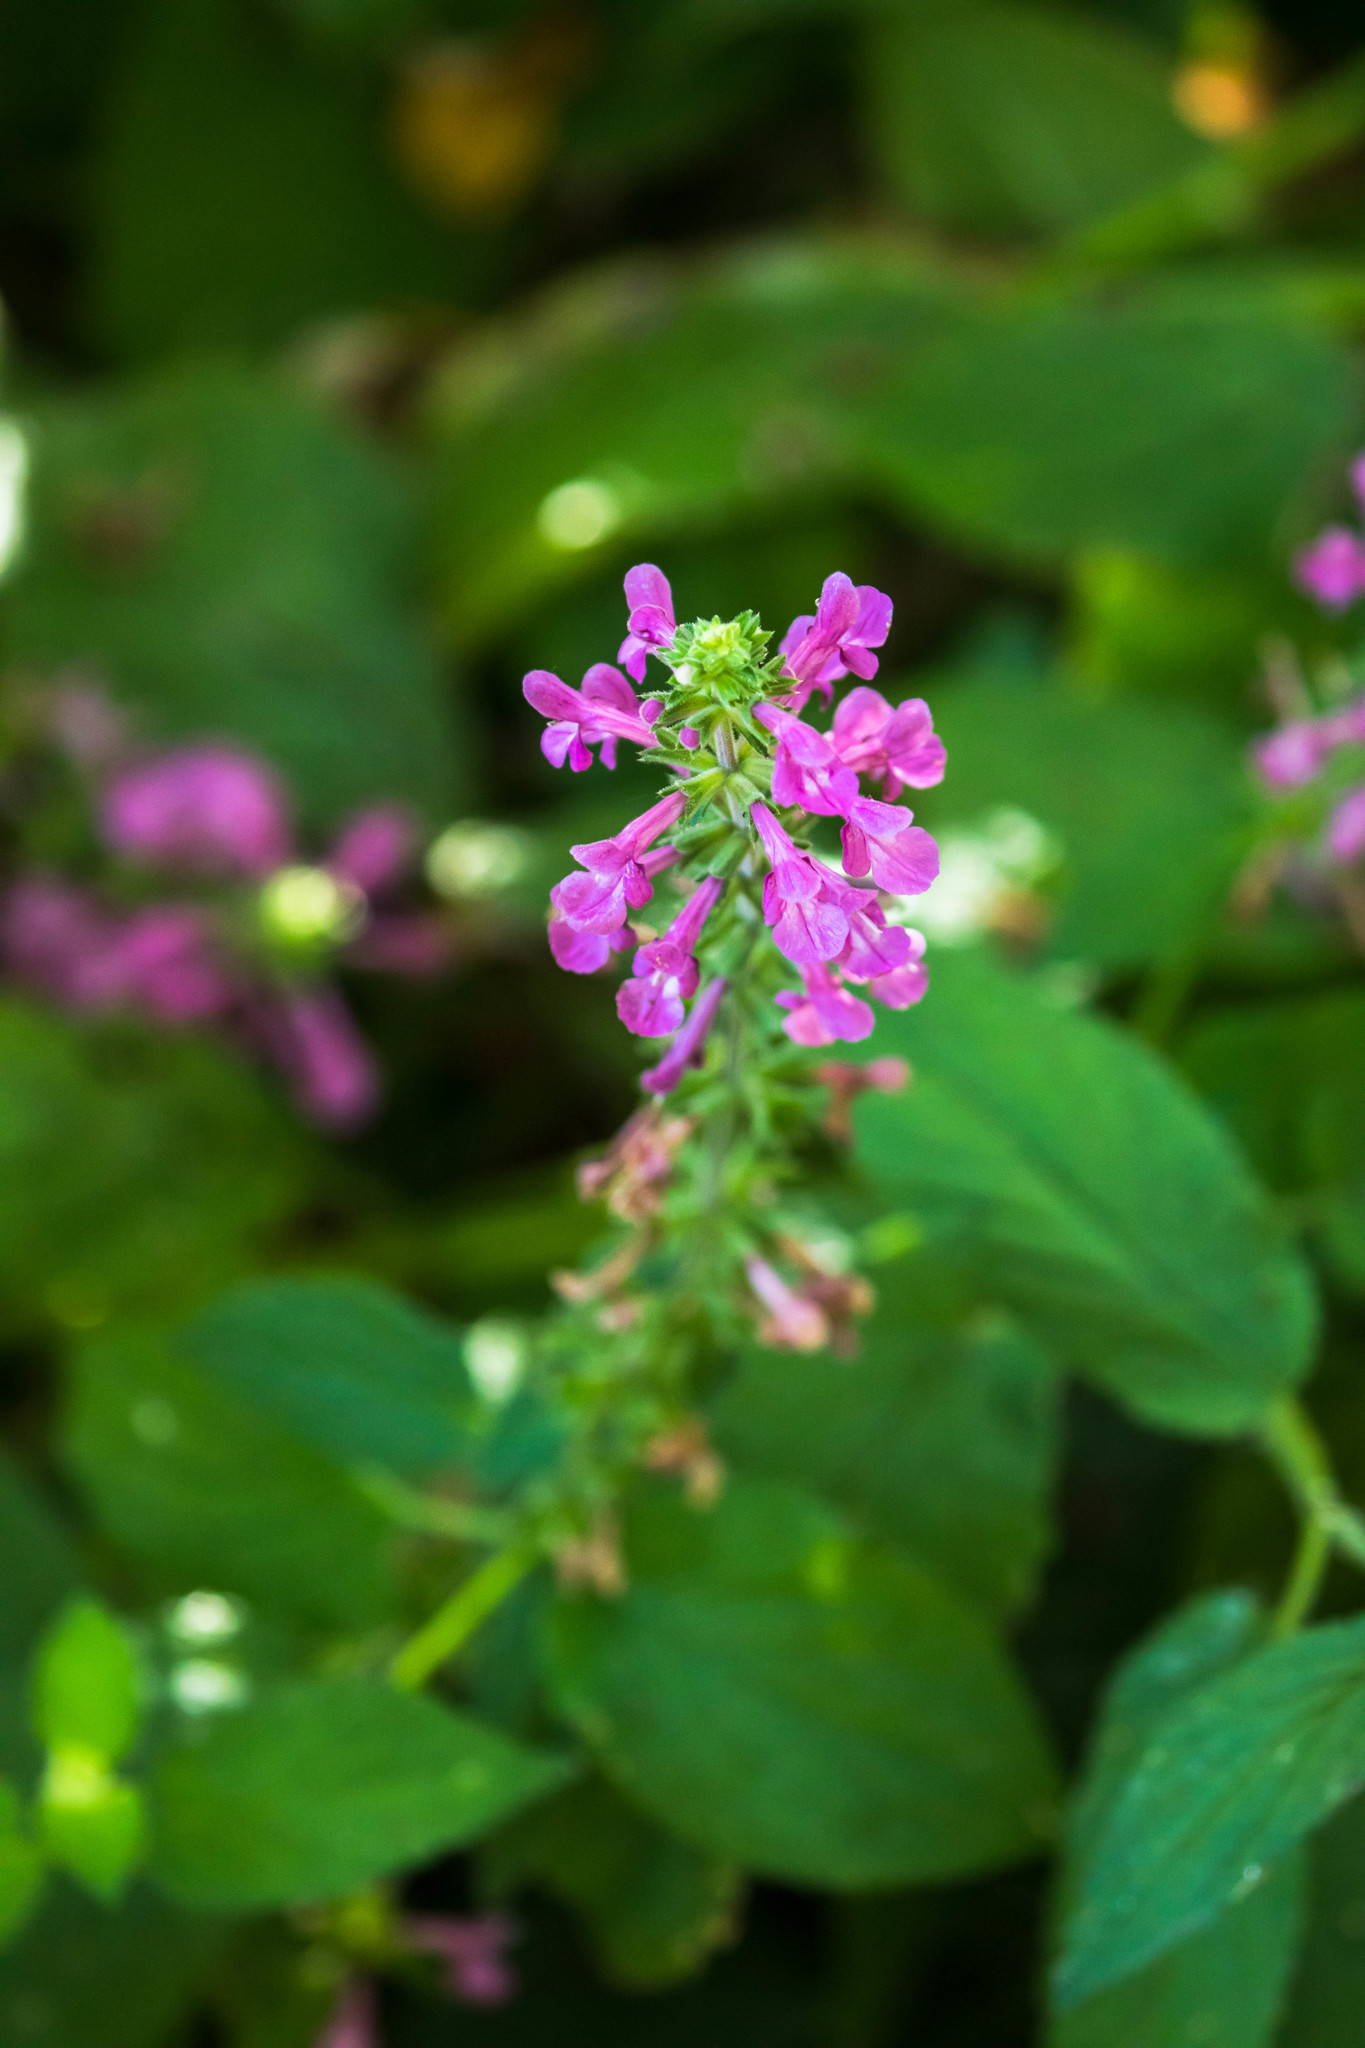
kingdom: Plantae
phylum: Tracheophyta
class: Magnoliopsida
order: Lamiales
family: Lamiaceae
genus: Stachys
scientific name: Stachys chamissonis
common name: Coastal hedge-nettle
